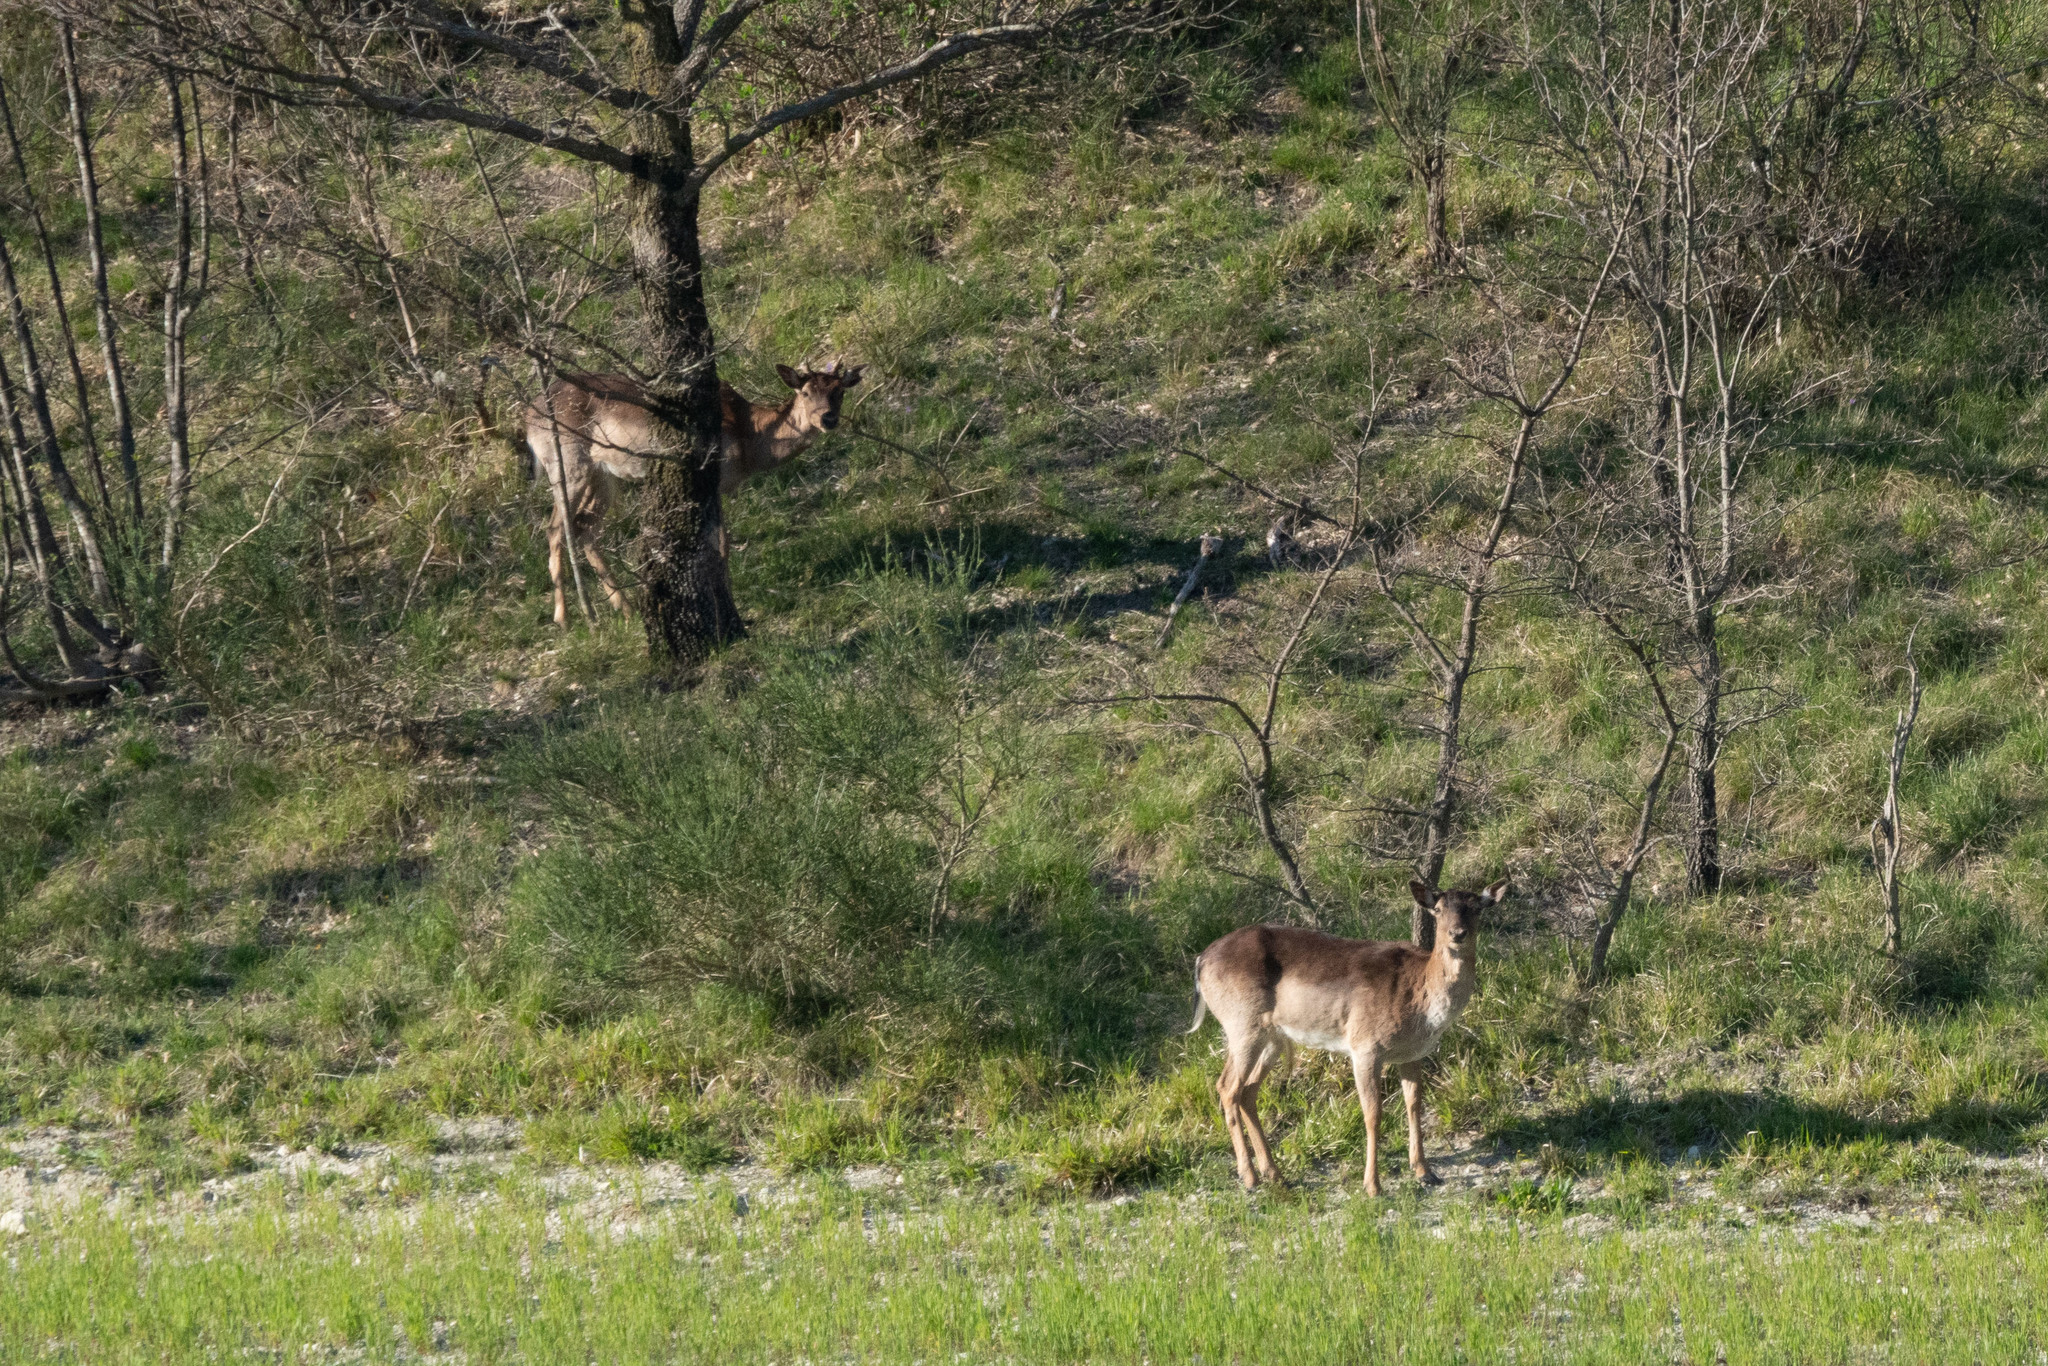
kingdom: Animalia
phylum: Chordata
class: Mammalia
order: Artiodactyla
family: Cervidae
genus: Dama
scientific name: Dama dama
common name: Fallow deer
